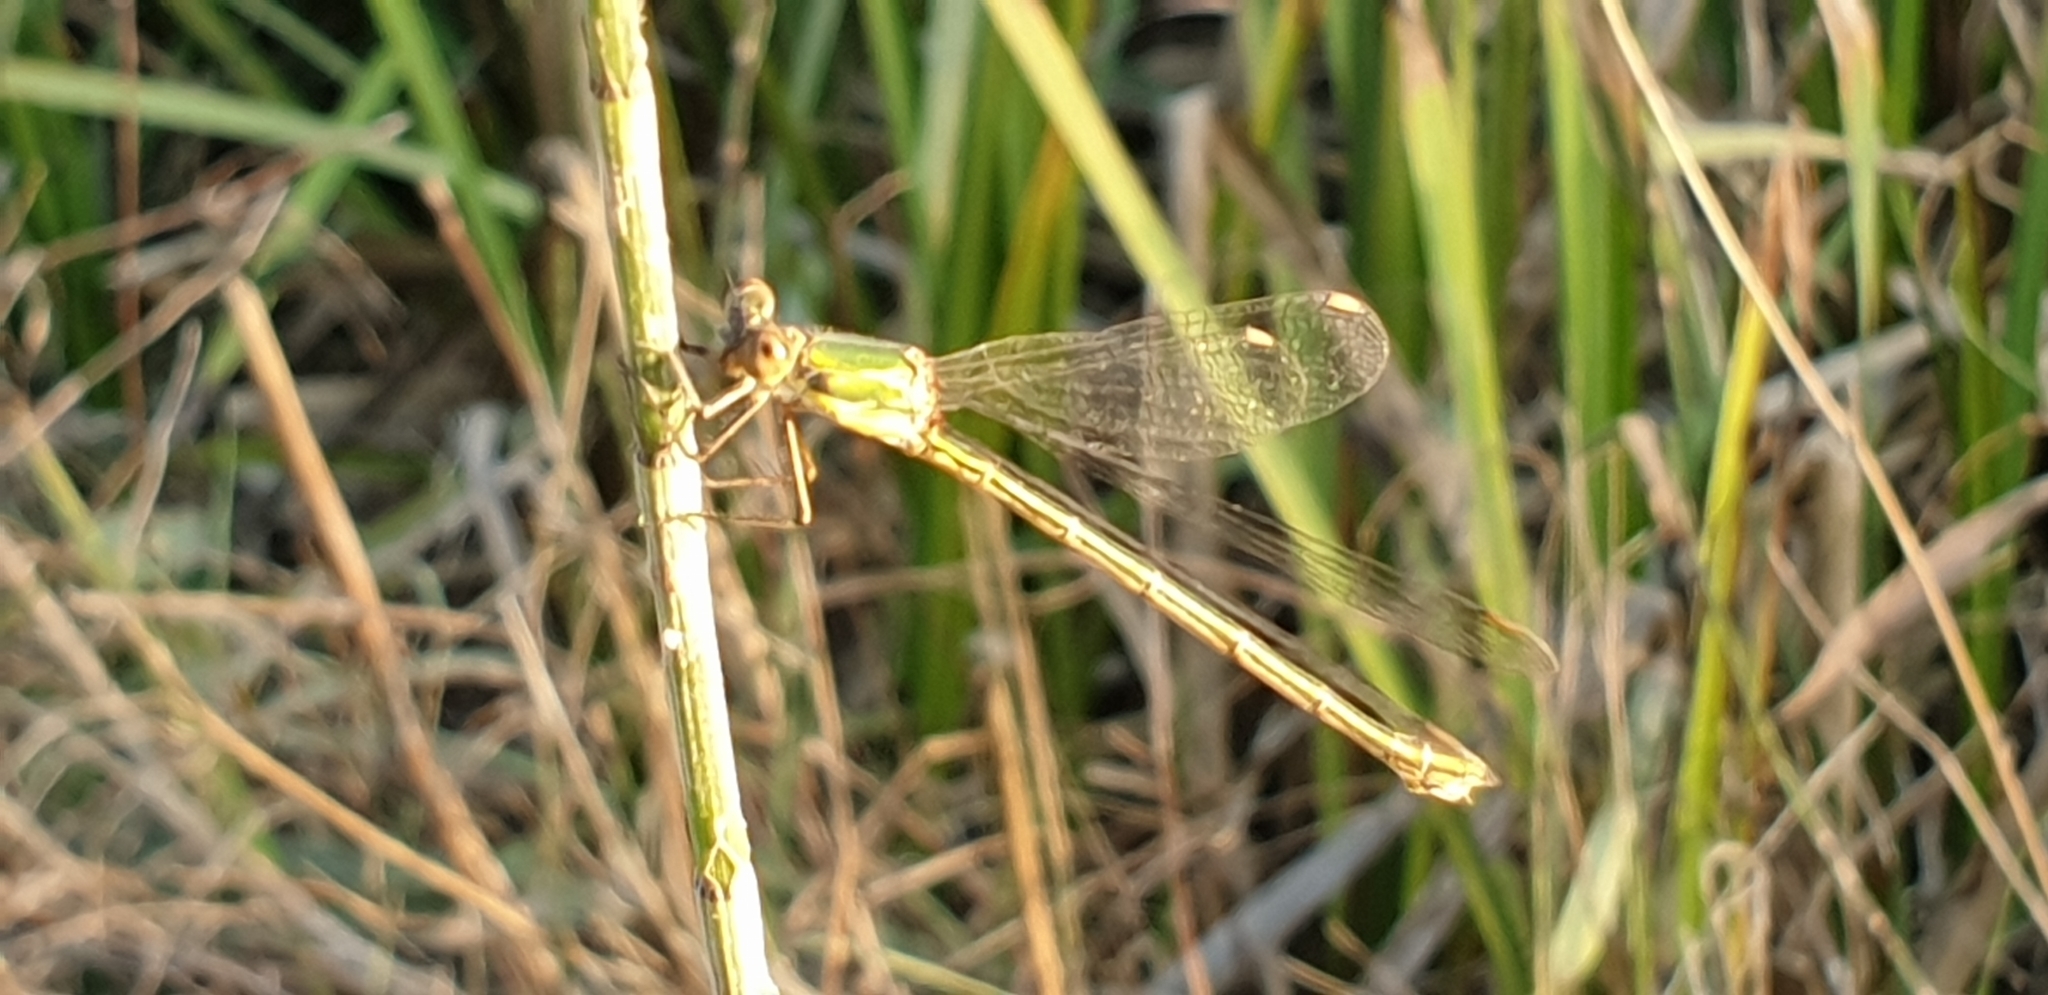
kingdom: Animalia
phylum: Arthropoda
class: Insecta
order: Odonata
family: Lestidae
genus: Chalcolestes
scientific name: Chalcolestes viridis
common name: Green emerald damselfly
